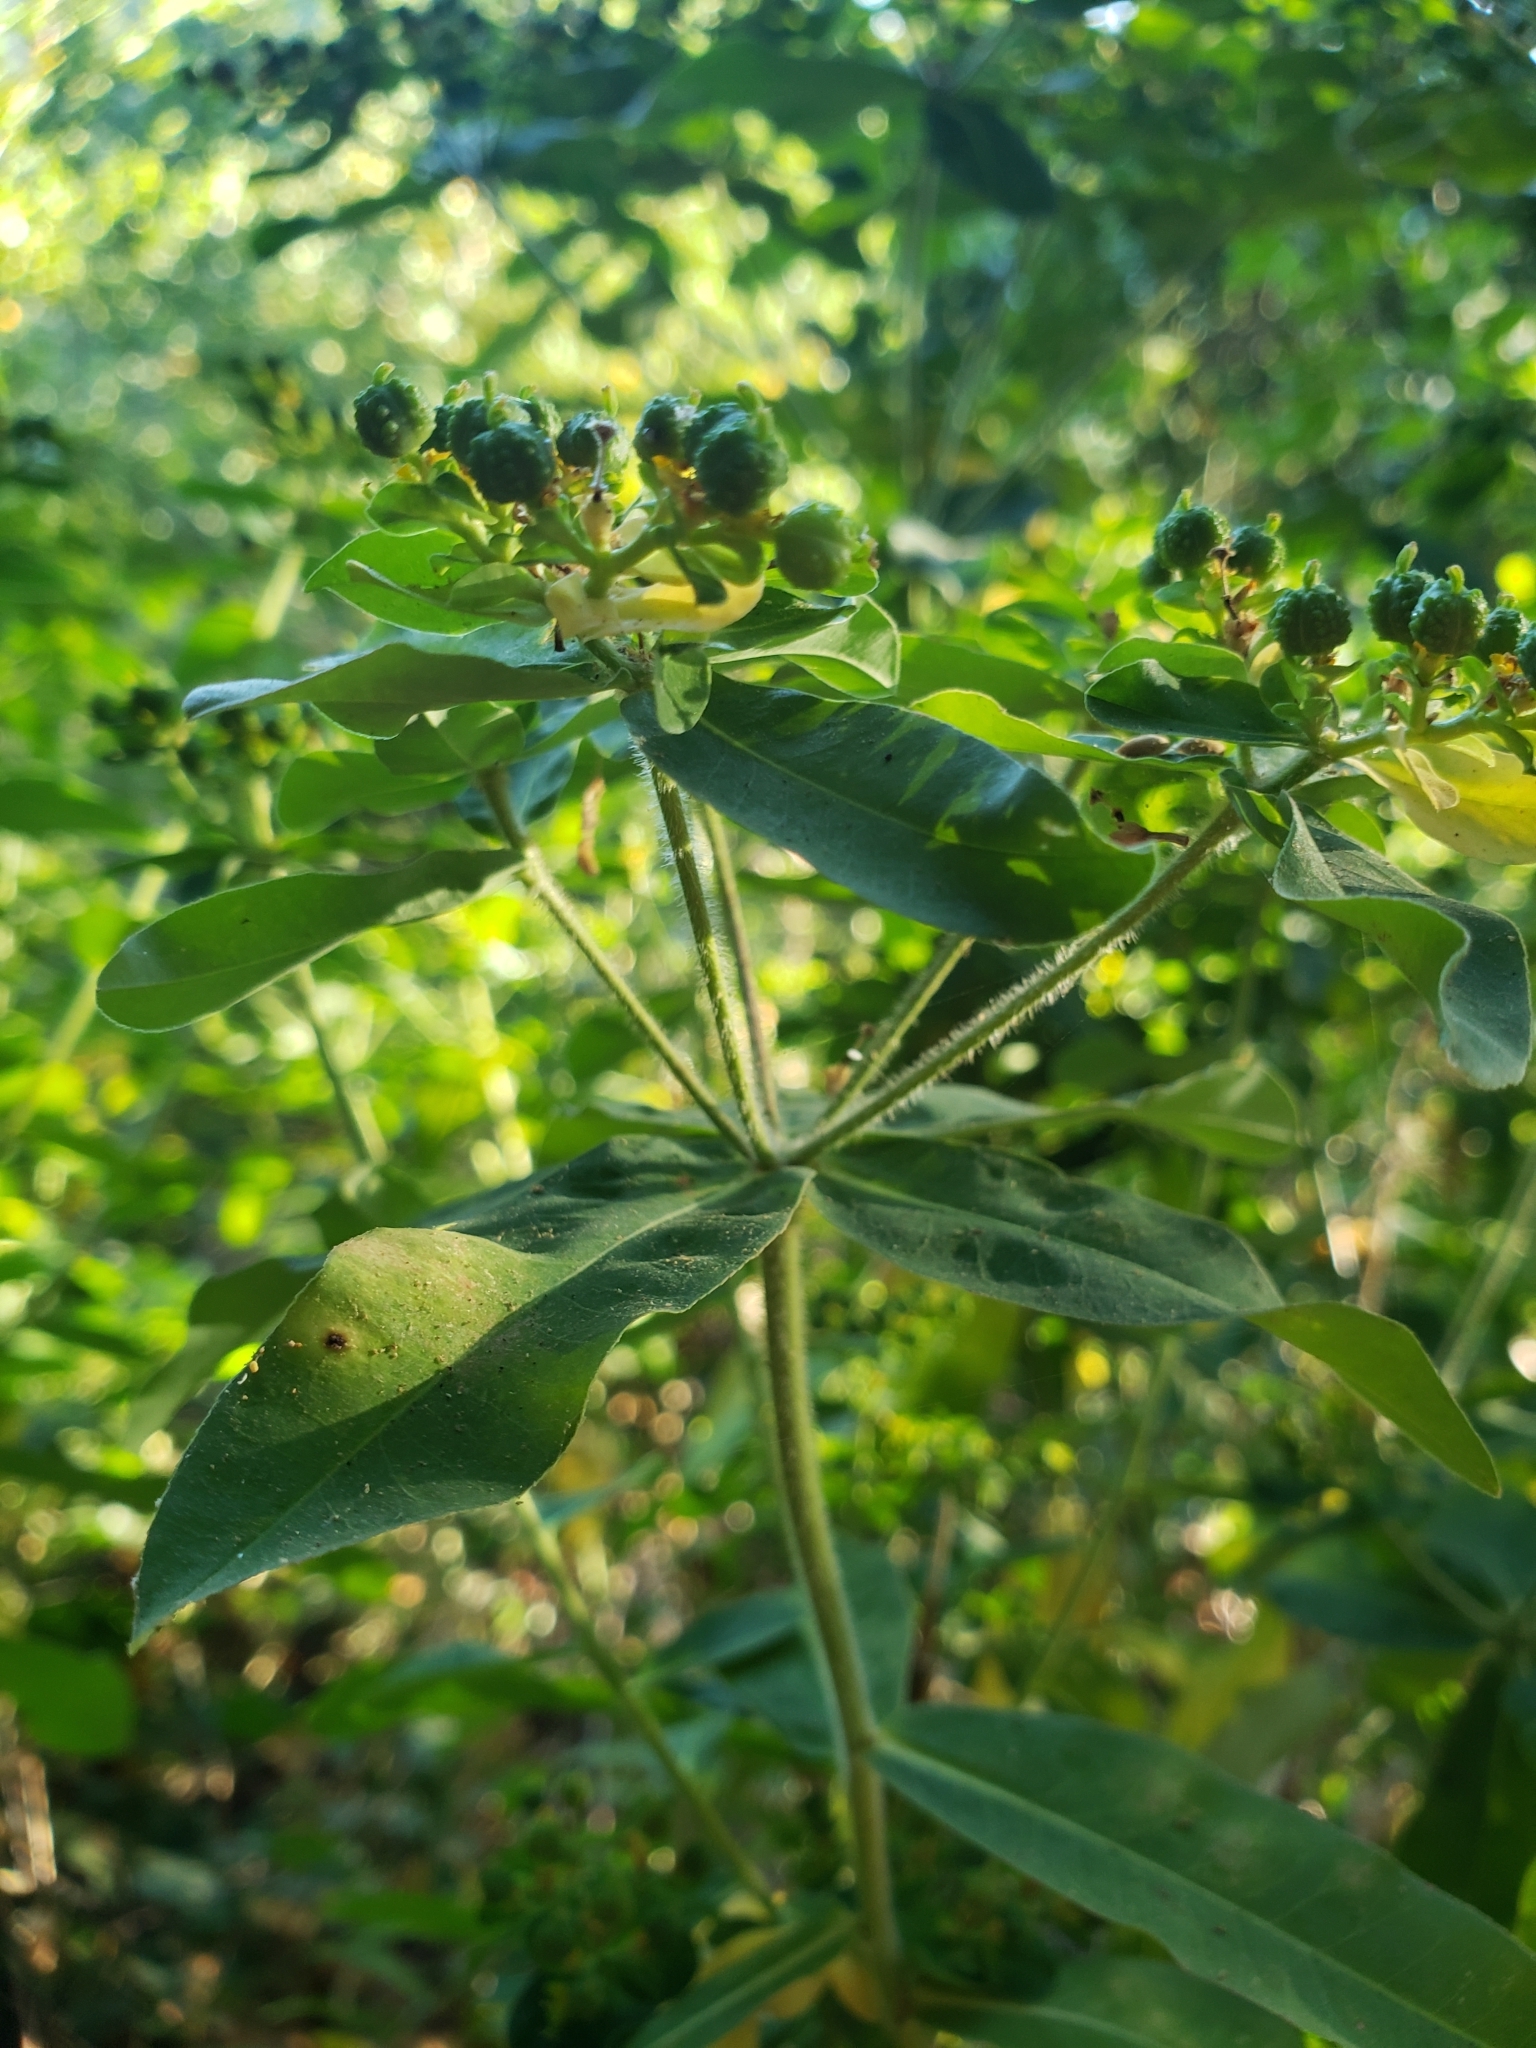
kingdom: Plantae
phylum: Tracheophyta
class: Magnoliopsida
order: Malpighiales
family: Euphorbiaceae
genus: Euphorbia
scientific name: Euphorbia oblongata
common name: Balkan spurge
